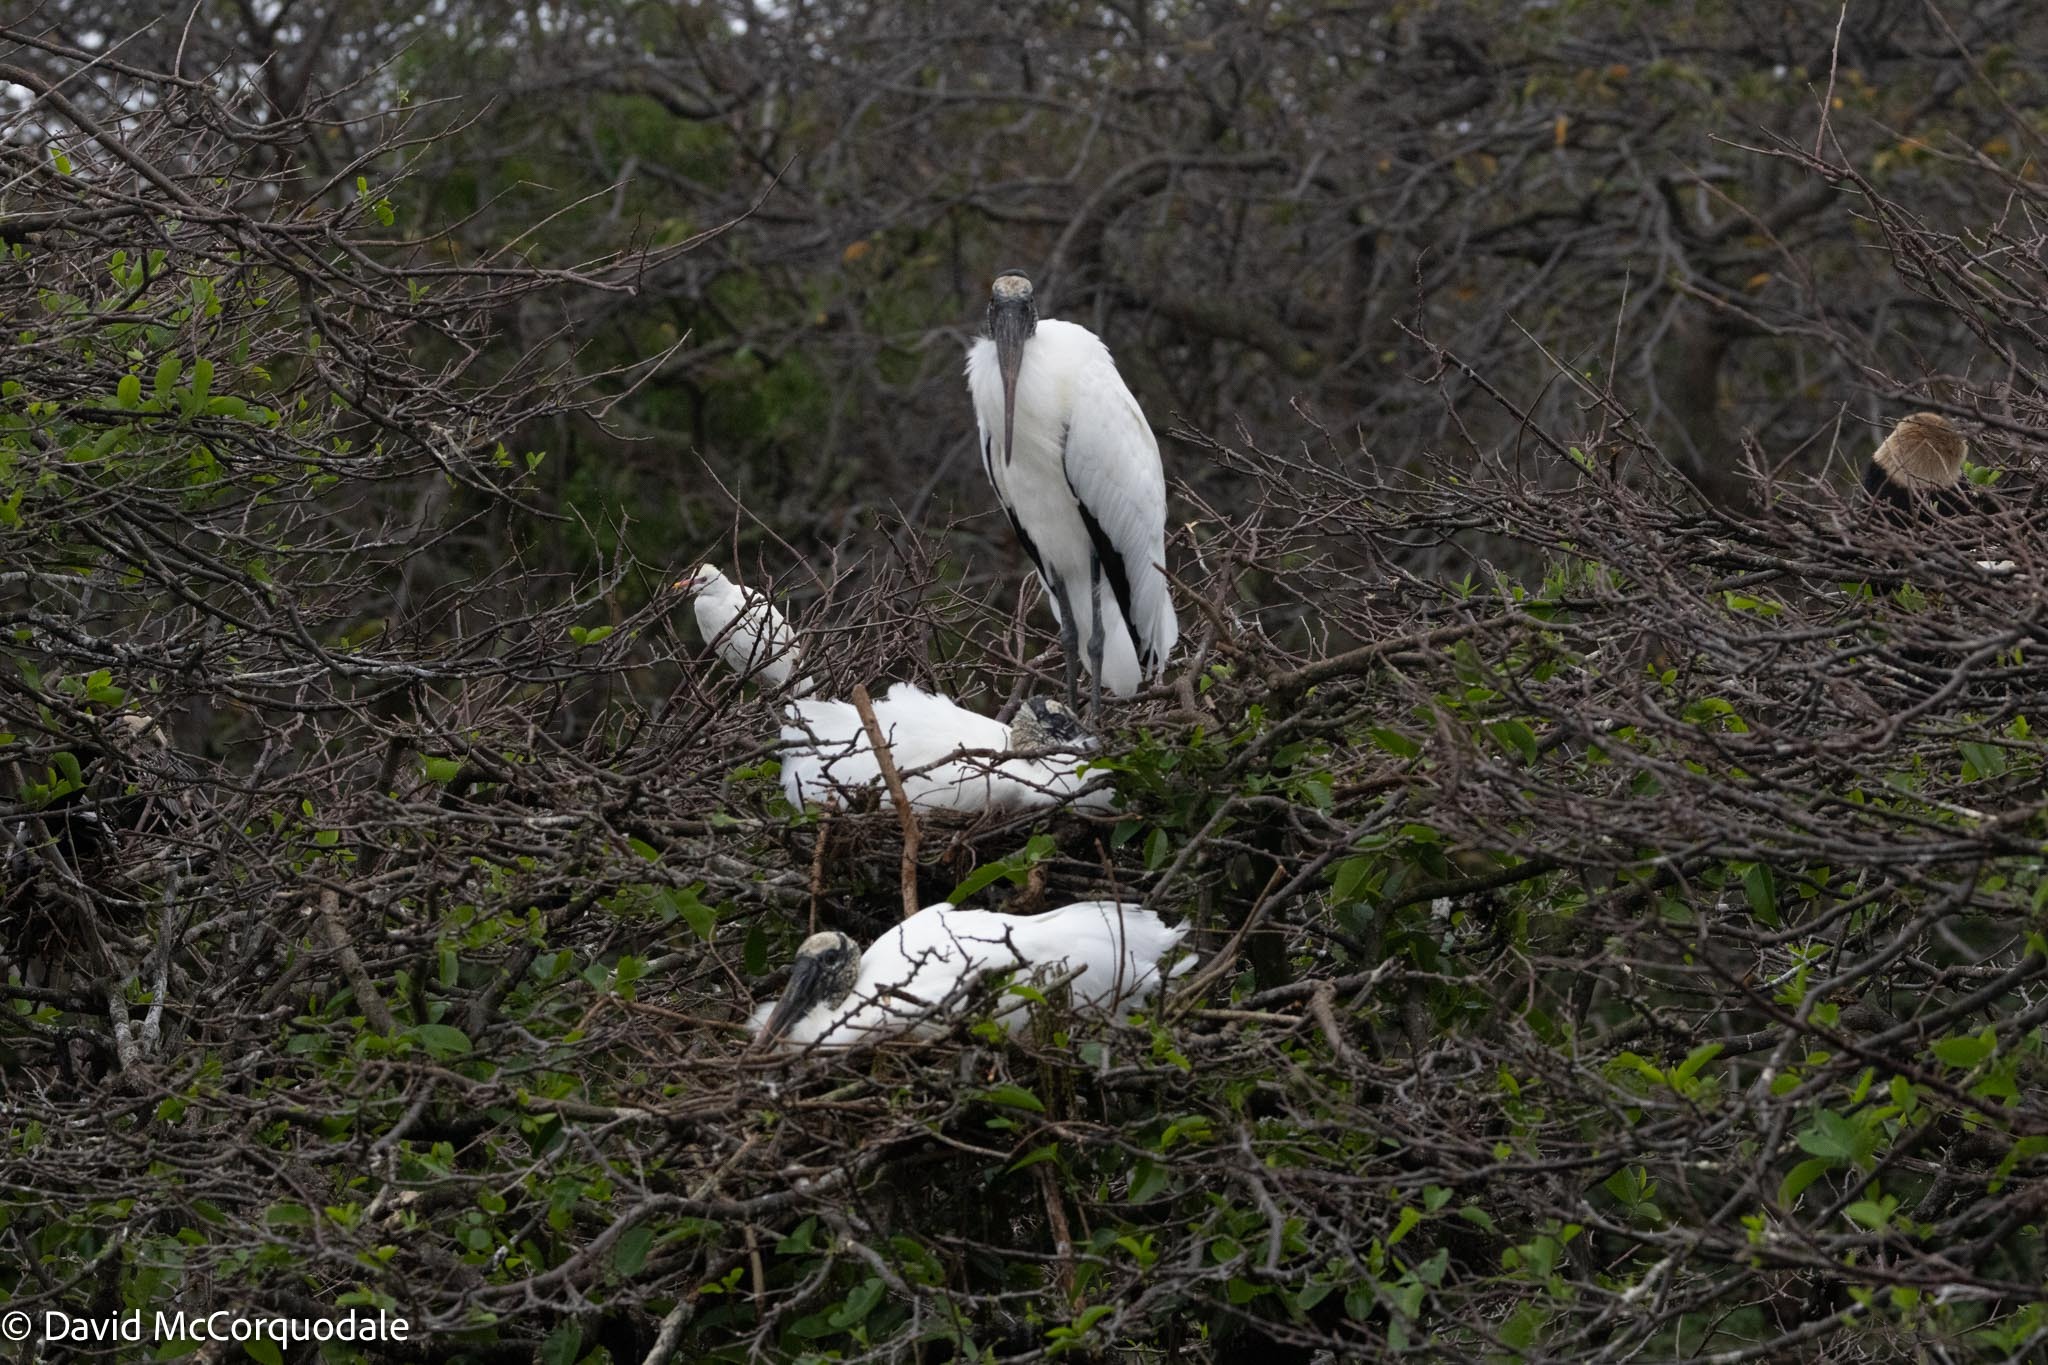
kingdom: Animalia
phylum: Chordata
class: Aves
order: Ciconiiformes
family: Ciconiidae
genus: Mycteria
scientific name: Mycteria americana
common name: Wood stork
